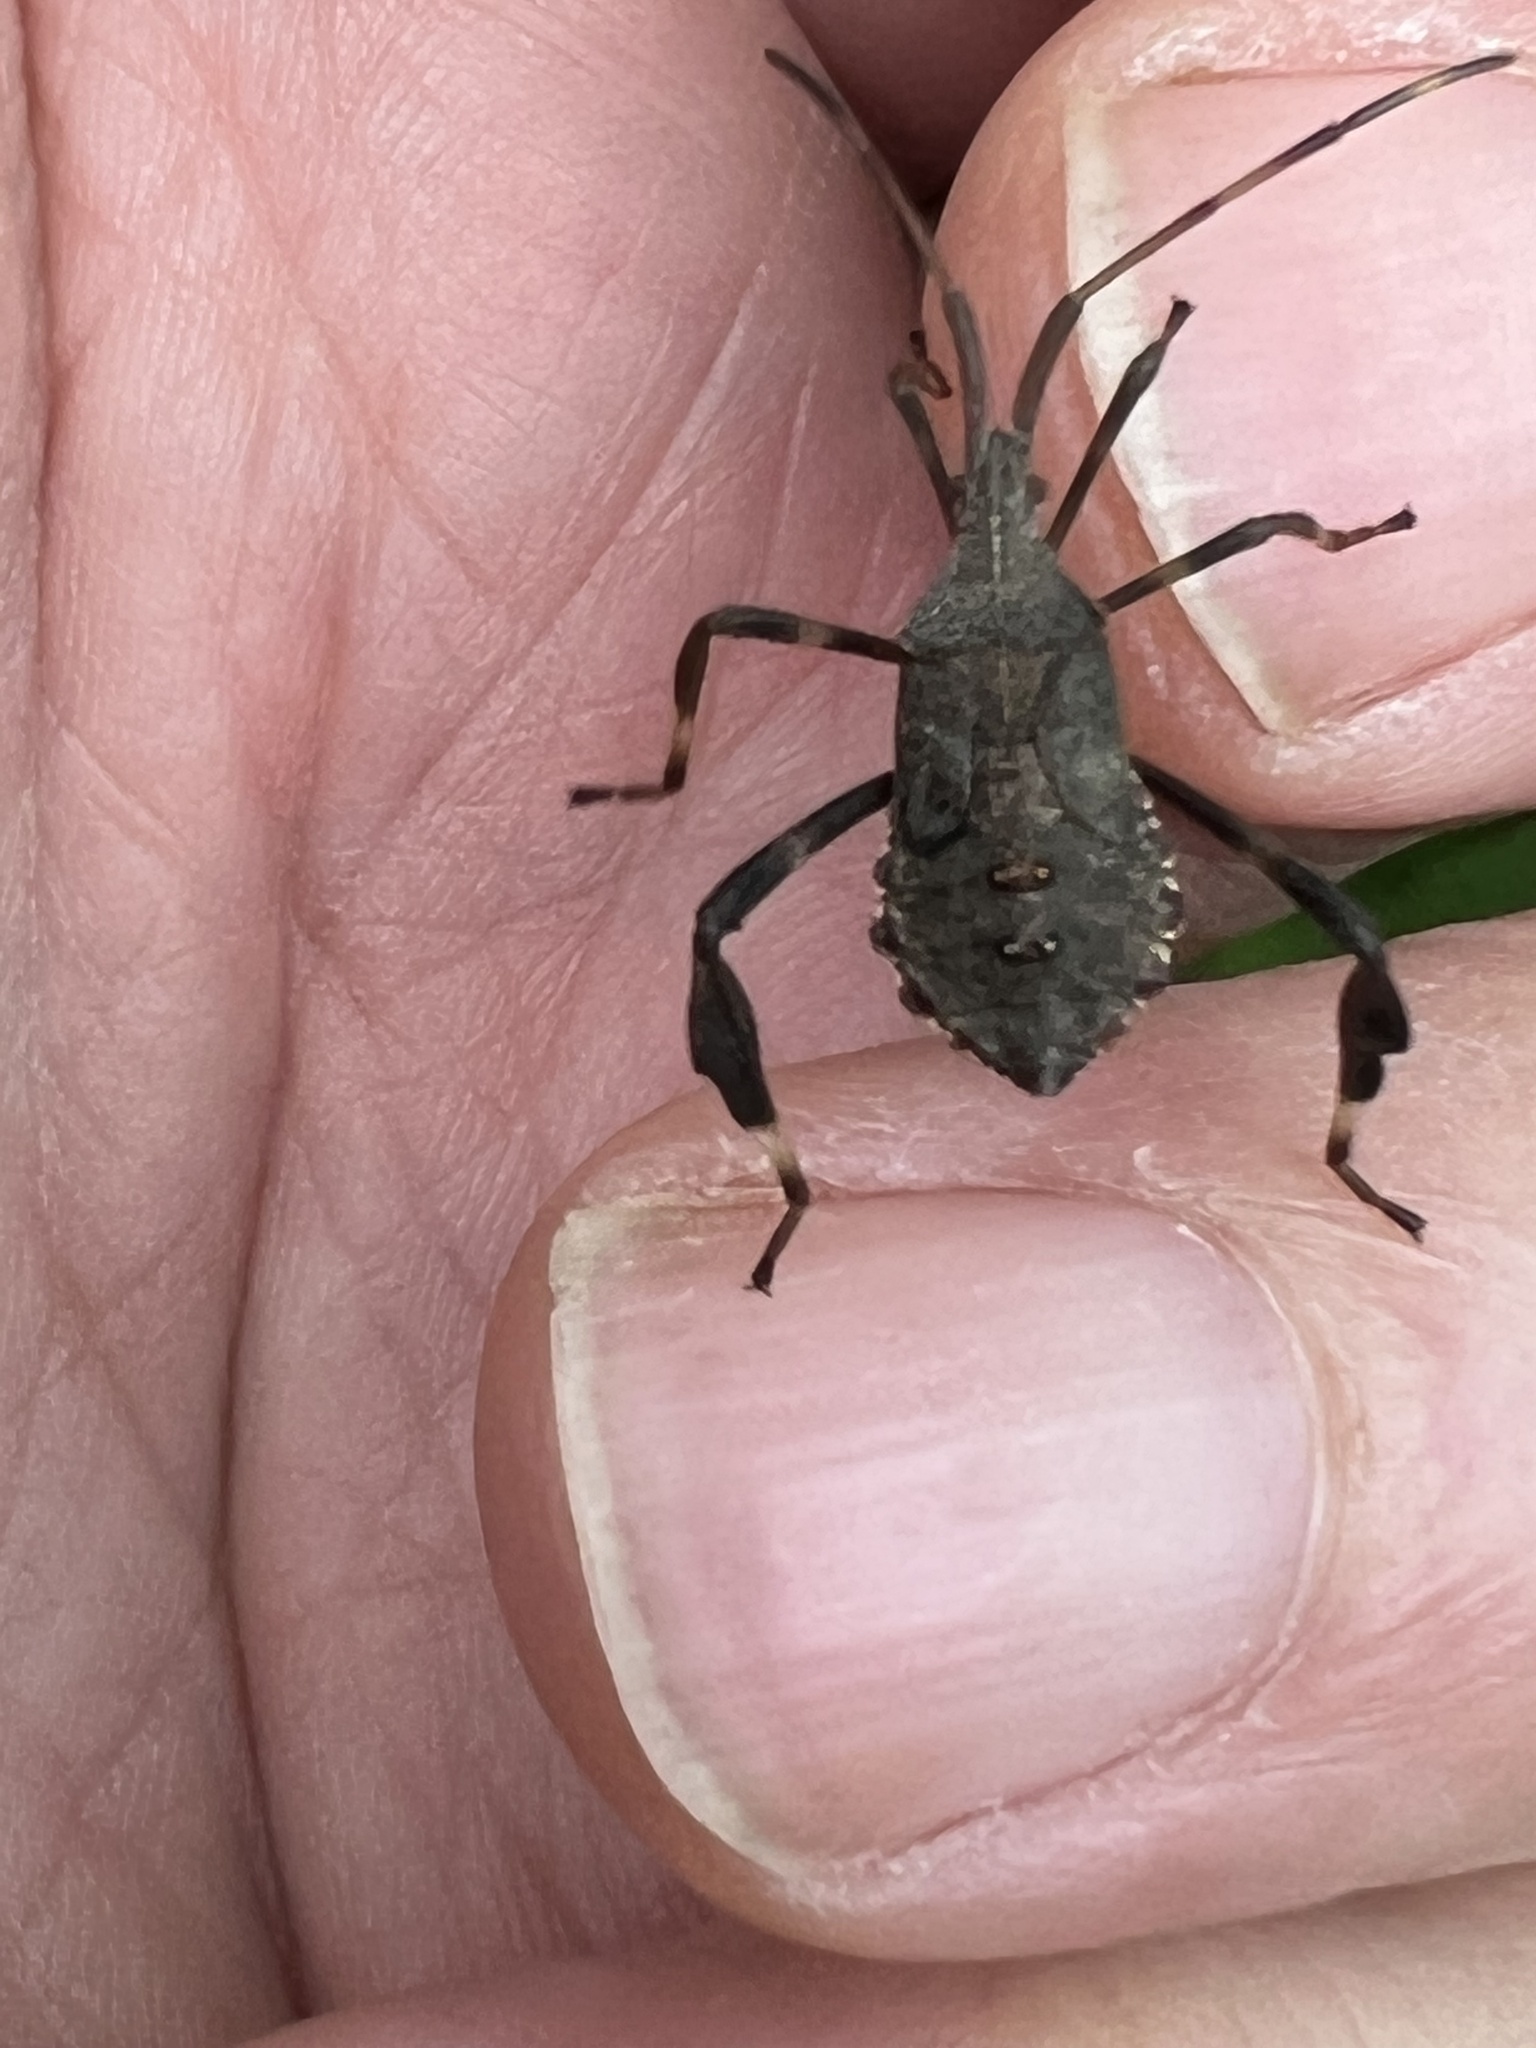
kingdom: Animalia
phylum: Arthropoda
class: Insecta
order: Hemiptera
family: Coreidae
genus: Acanthocephala
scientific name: Acanthocephala terminalis
